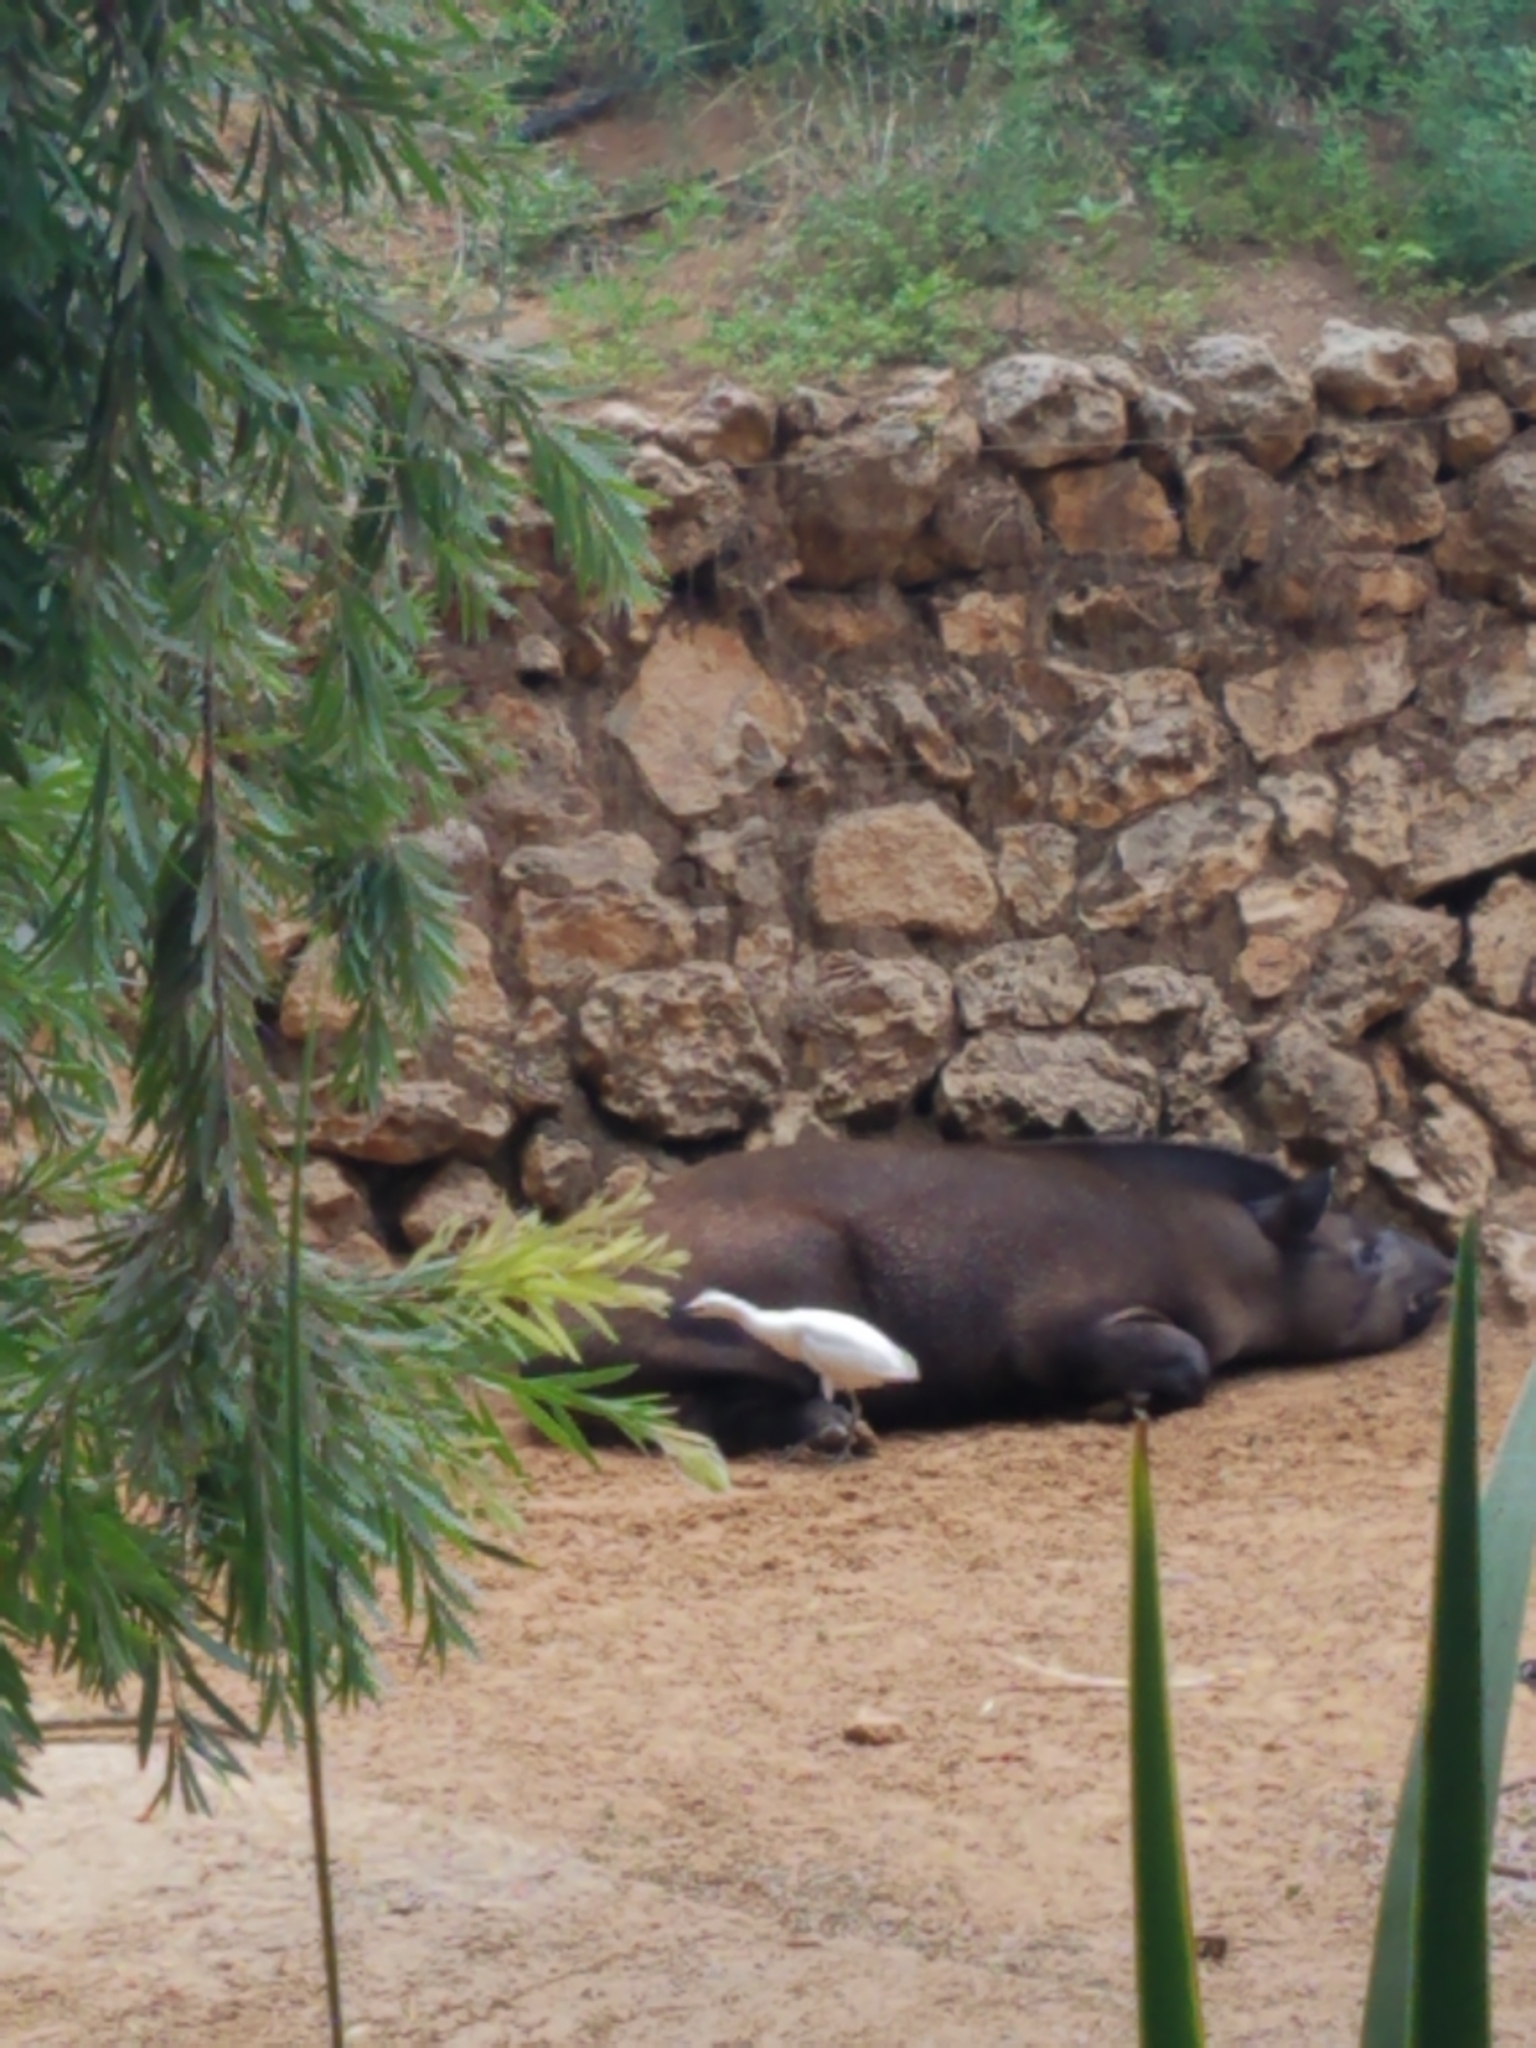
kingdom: Animalia
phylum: Chordata
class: Aves
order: Pelecaniformes
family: Ardeidae
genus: Bubulcus
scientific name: Bubulcus ibis
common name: Cattle egret
